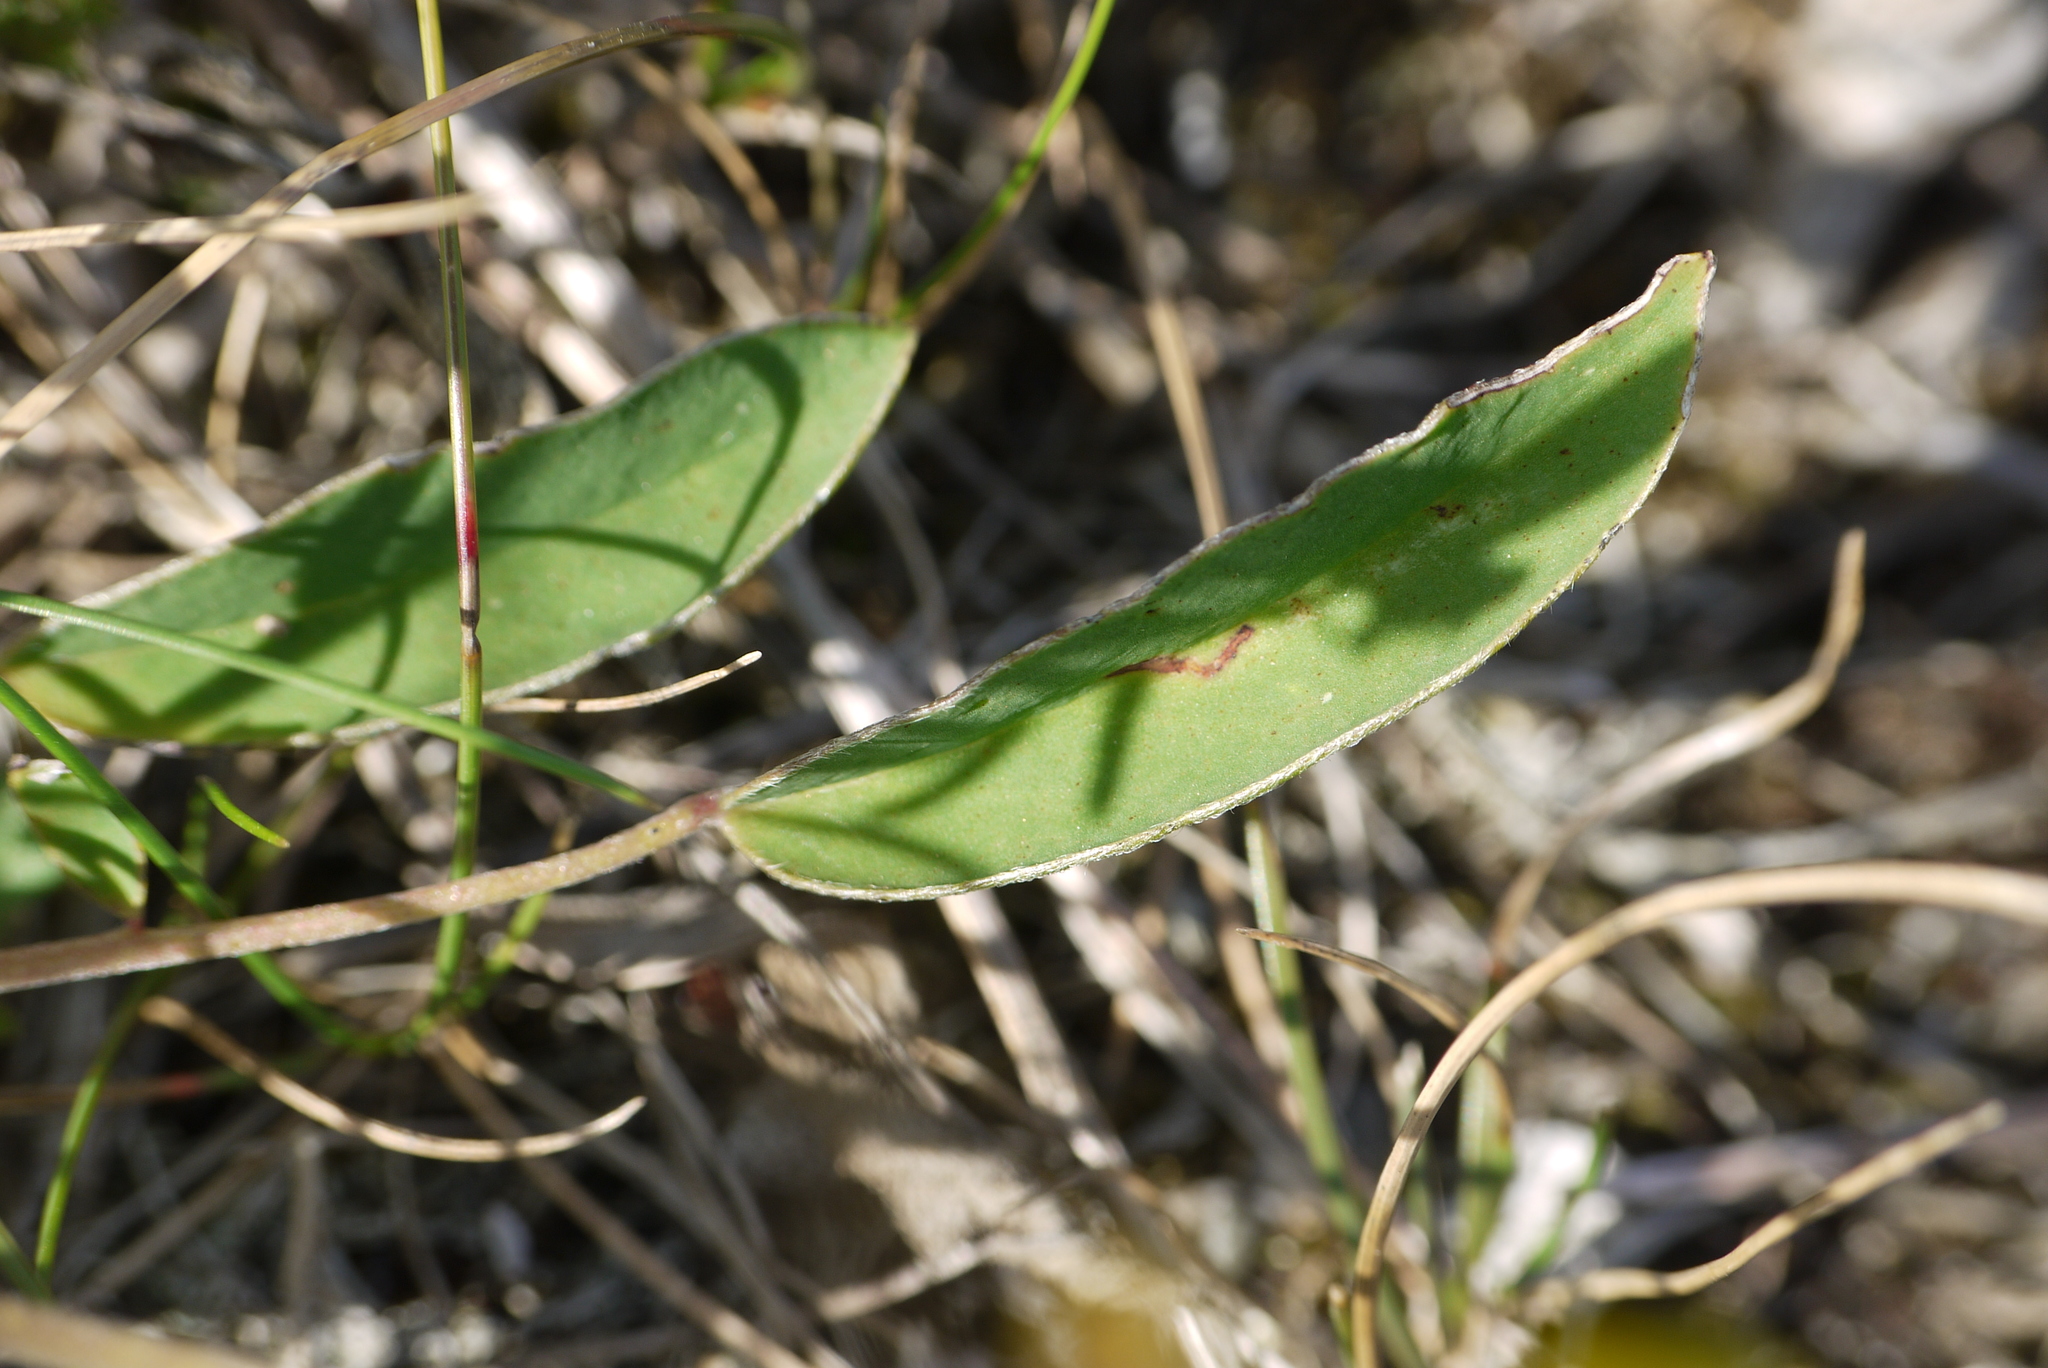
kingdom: Plantae
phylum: Tracheophyta
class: Magnoliopsida
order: Fabales
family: Fabaceae
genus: Anthyllis
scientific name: Anthyllis vulneraria
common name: Kidney vetch
